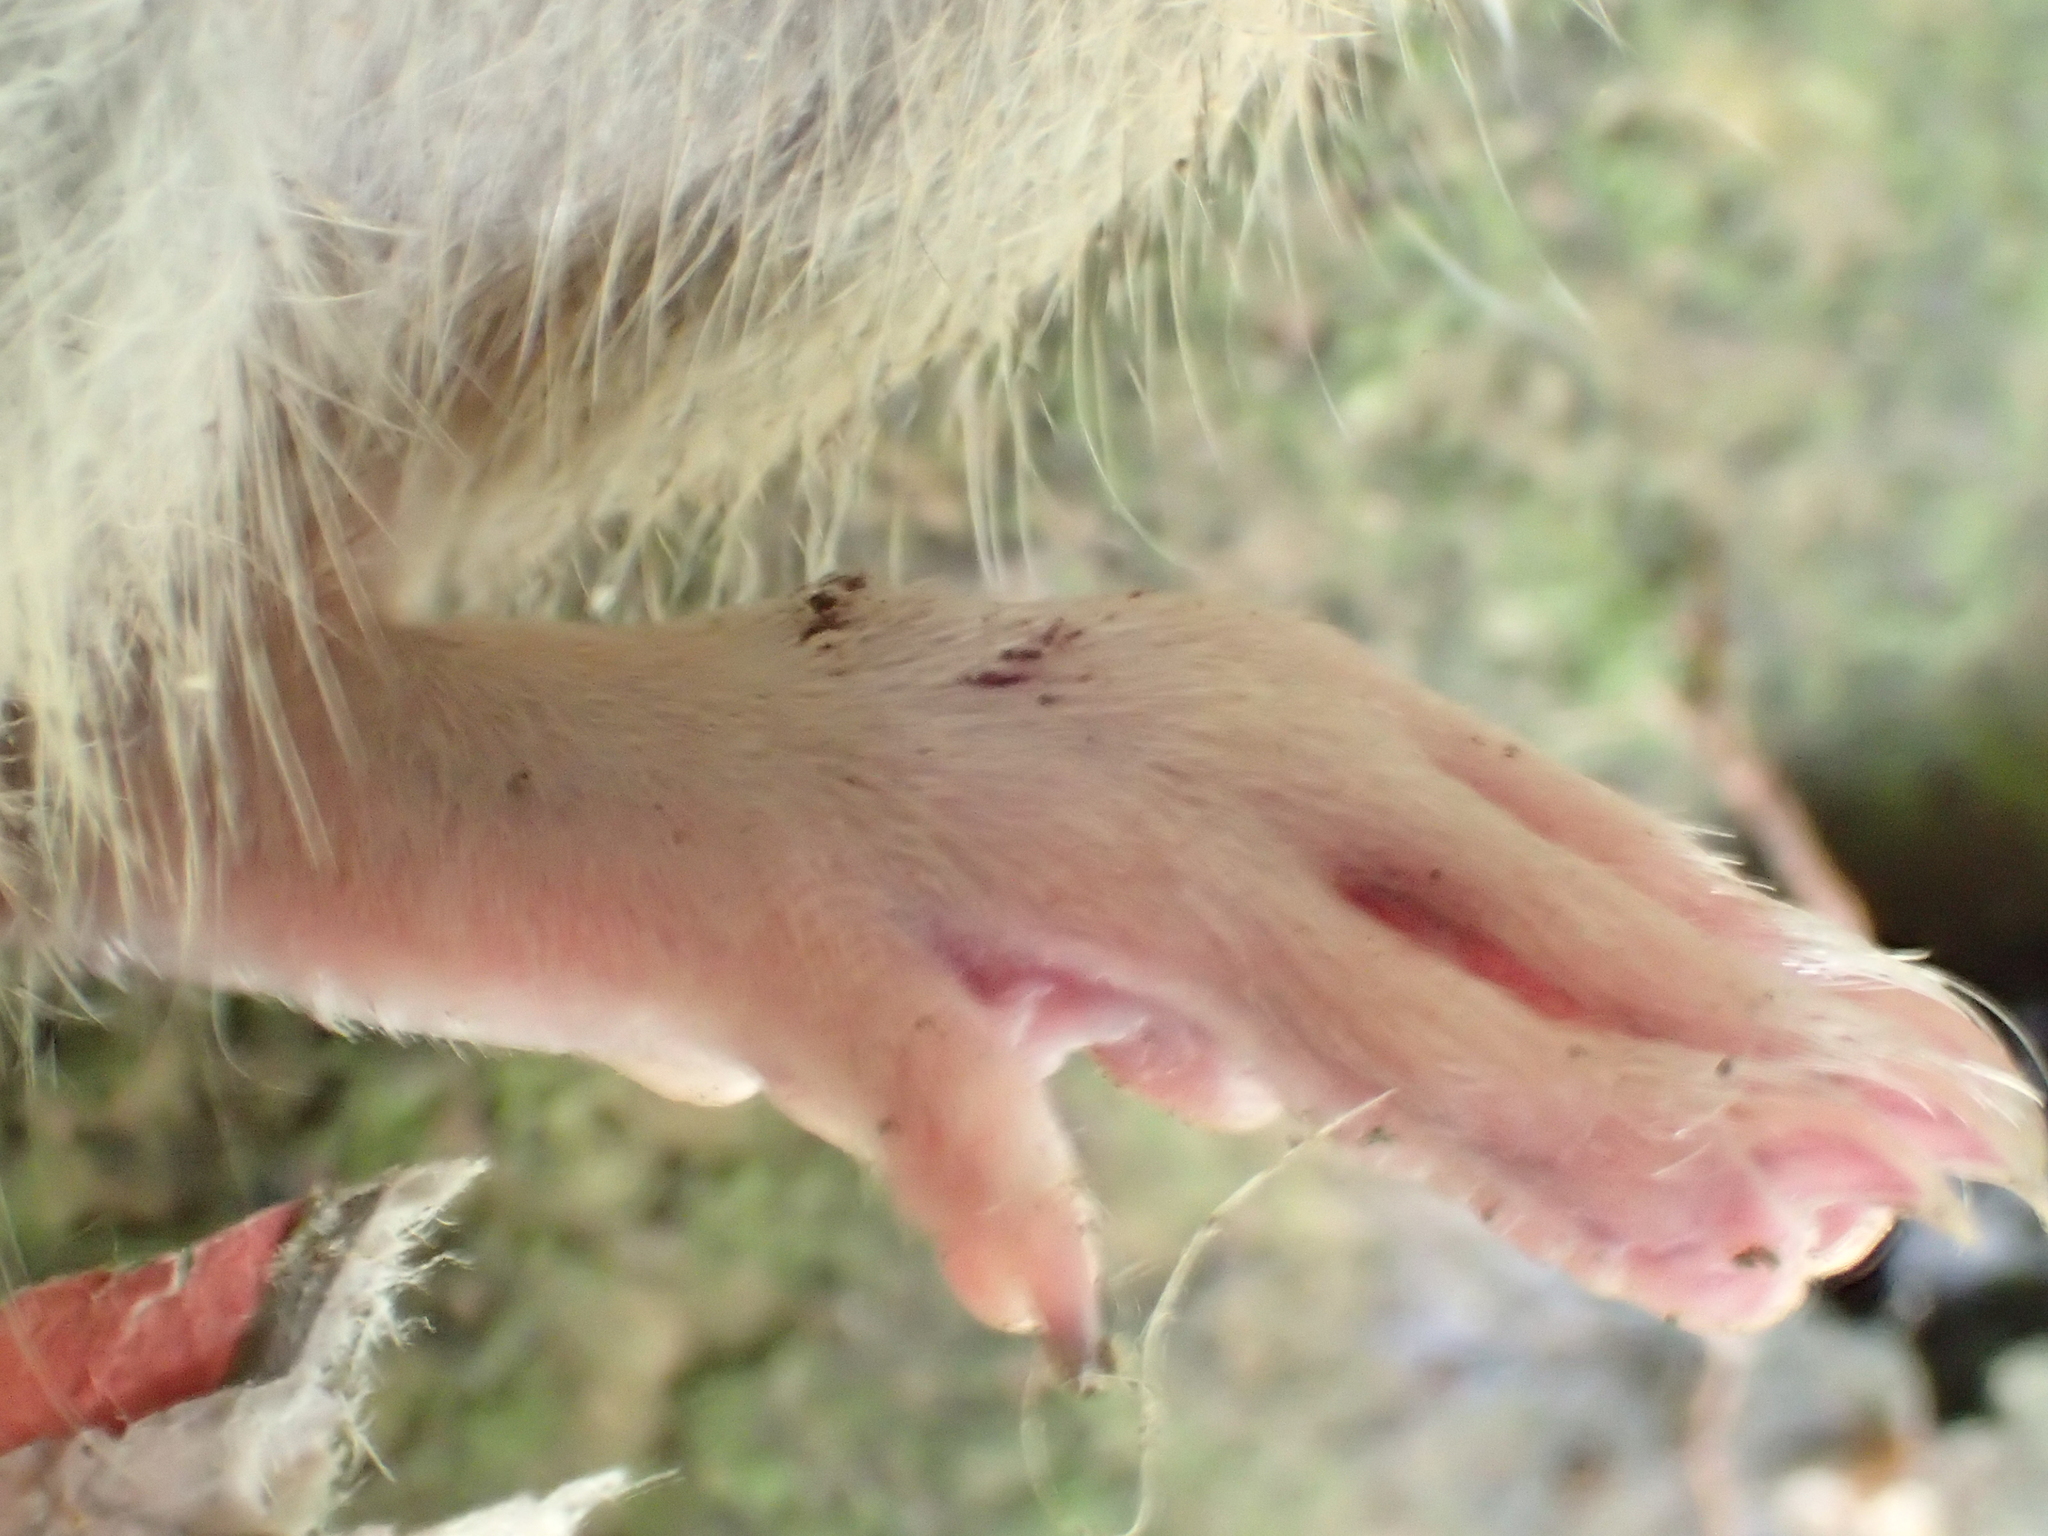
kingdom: Animalia
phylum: Chordata
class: Mammalia
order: Rodentia
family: Muridae
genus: Rattus
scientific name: Rattus norvegicus
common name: Brown rat
